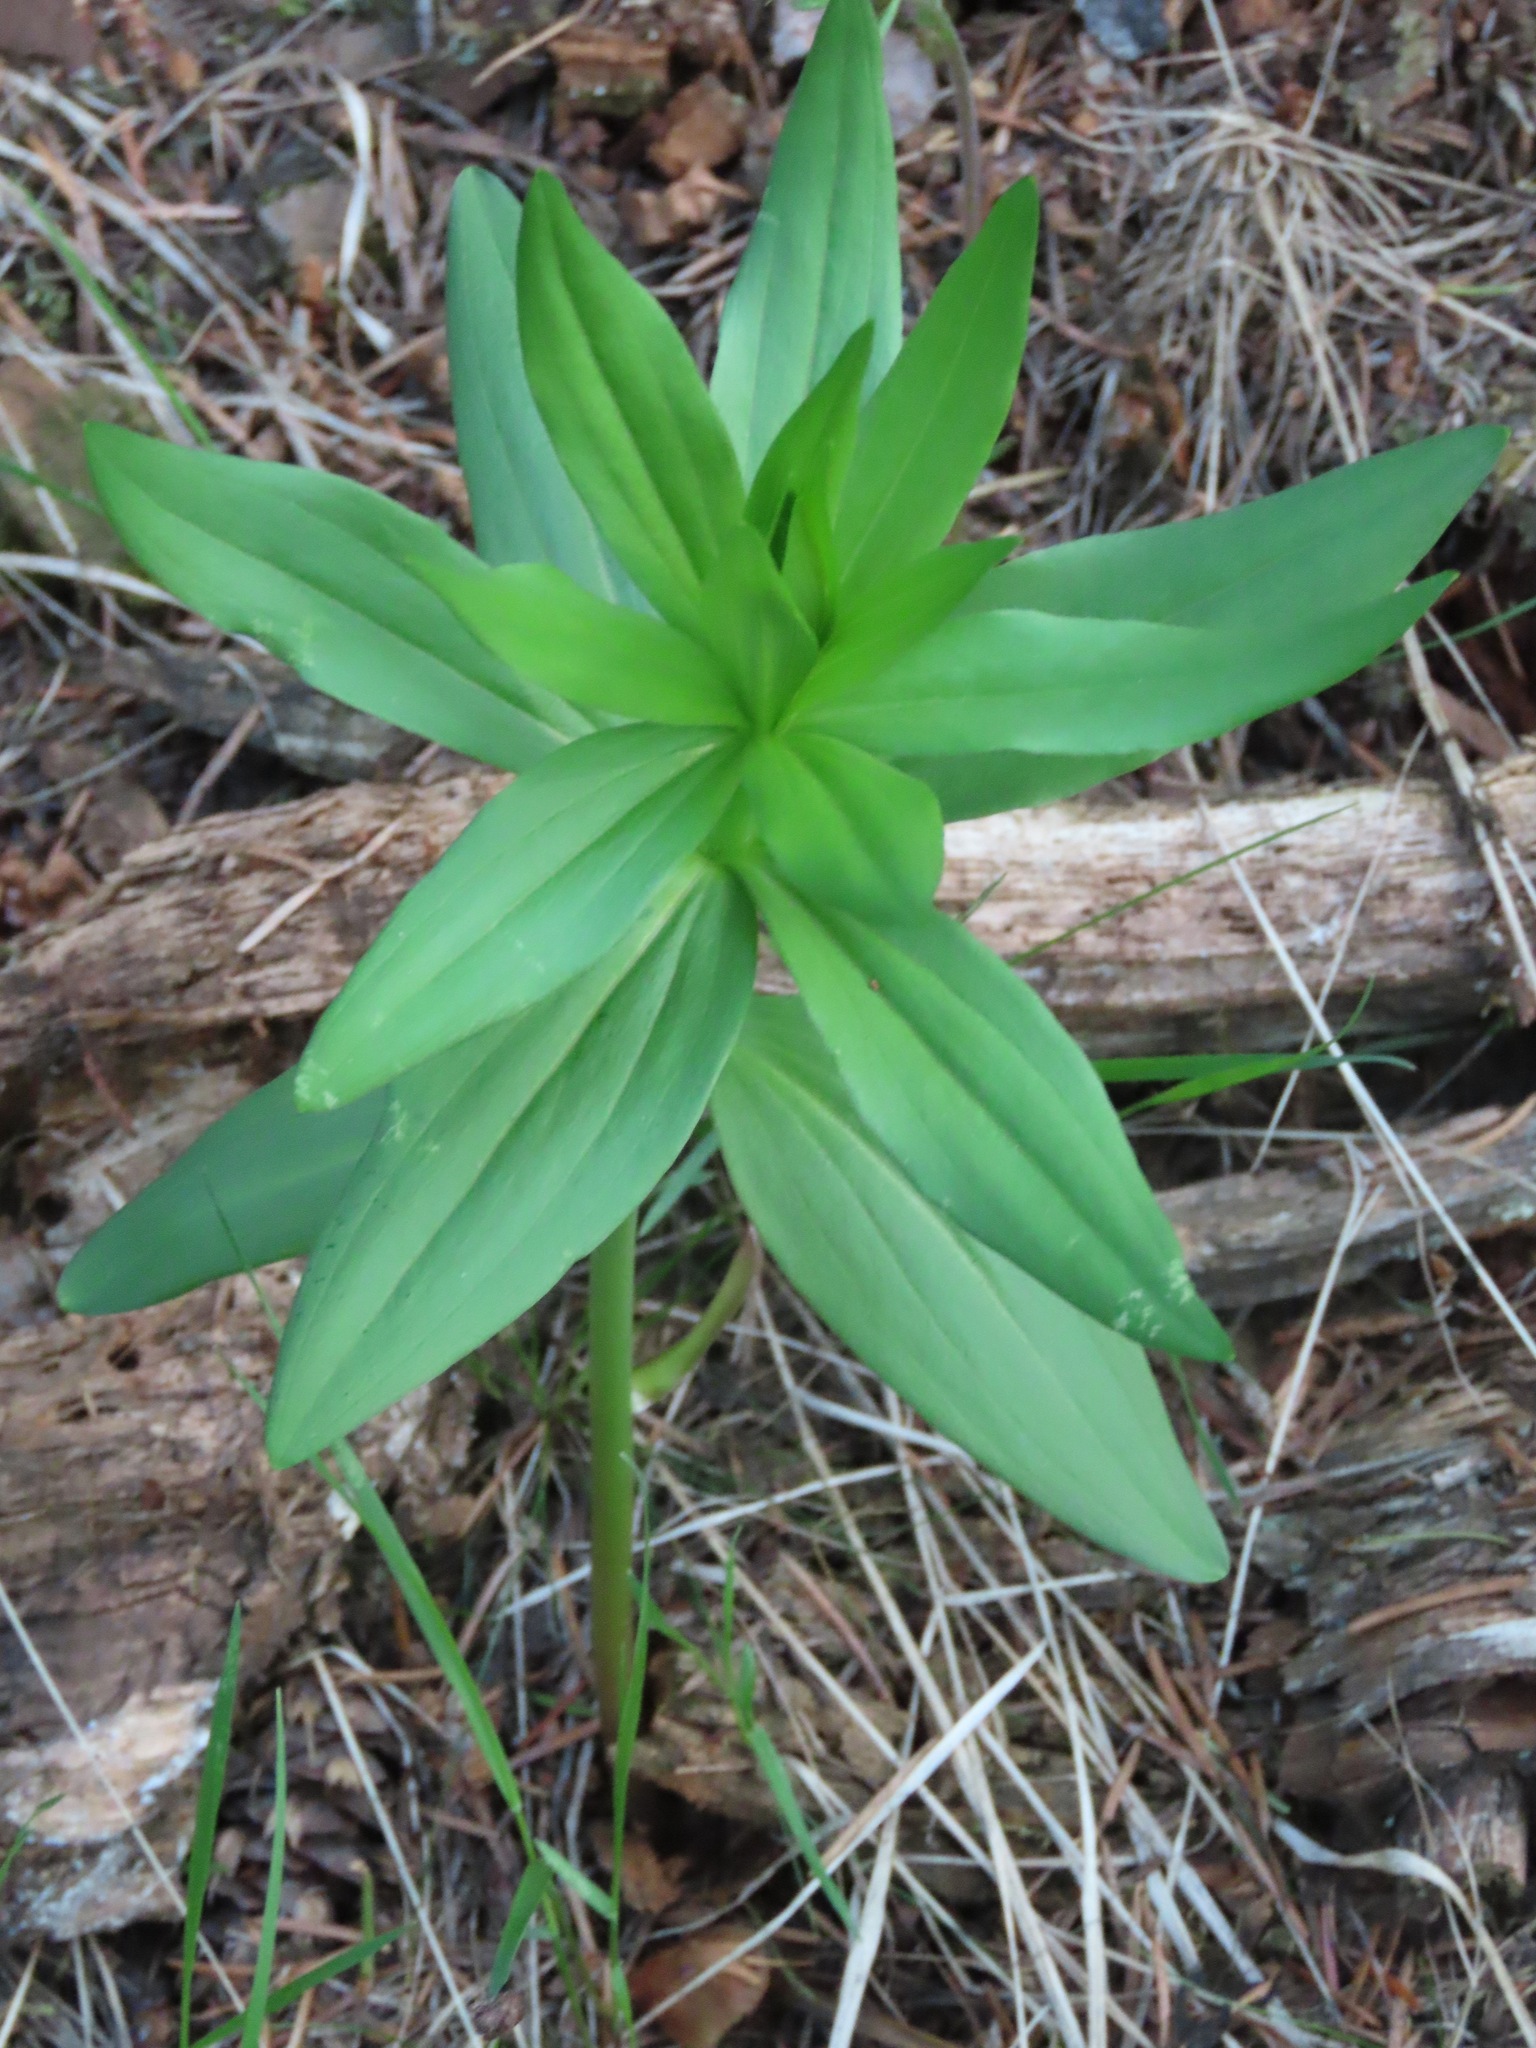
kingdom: Plantae
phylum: Tracheophyta
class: Liliopsida
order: Liliales
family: Liliaceae
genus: Lilium
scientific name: Lilium columbianum
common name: Columbia lily
